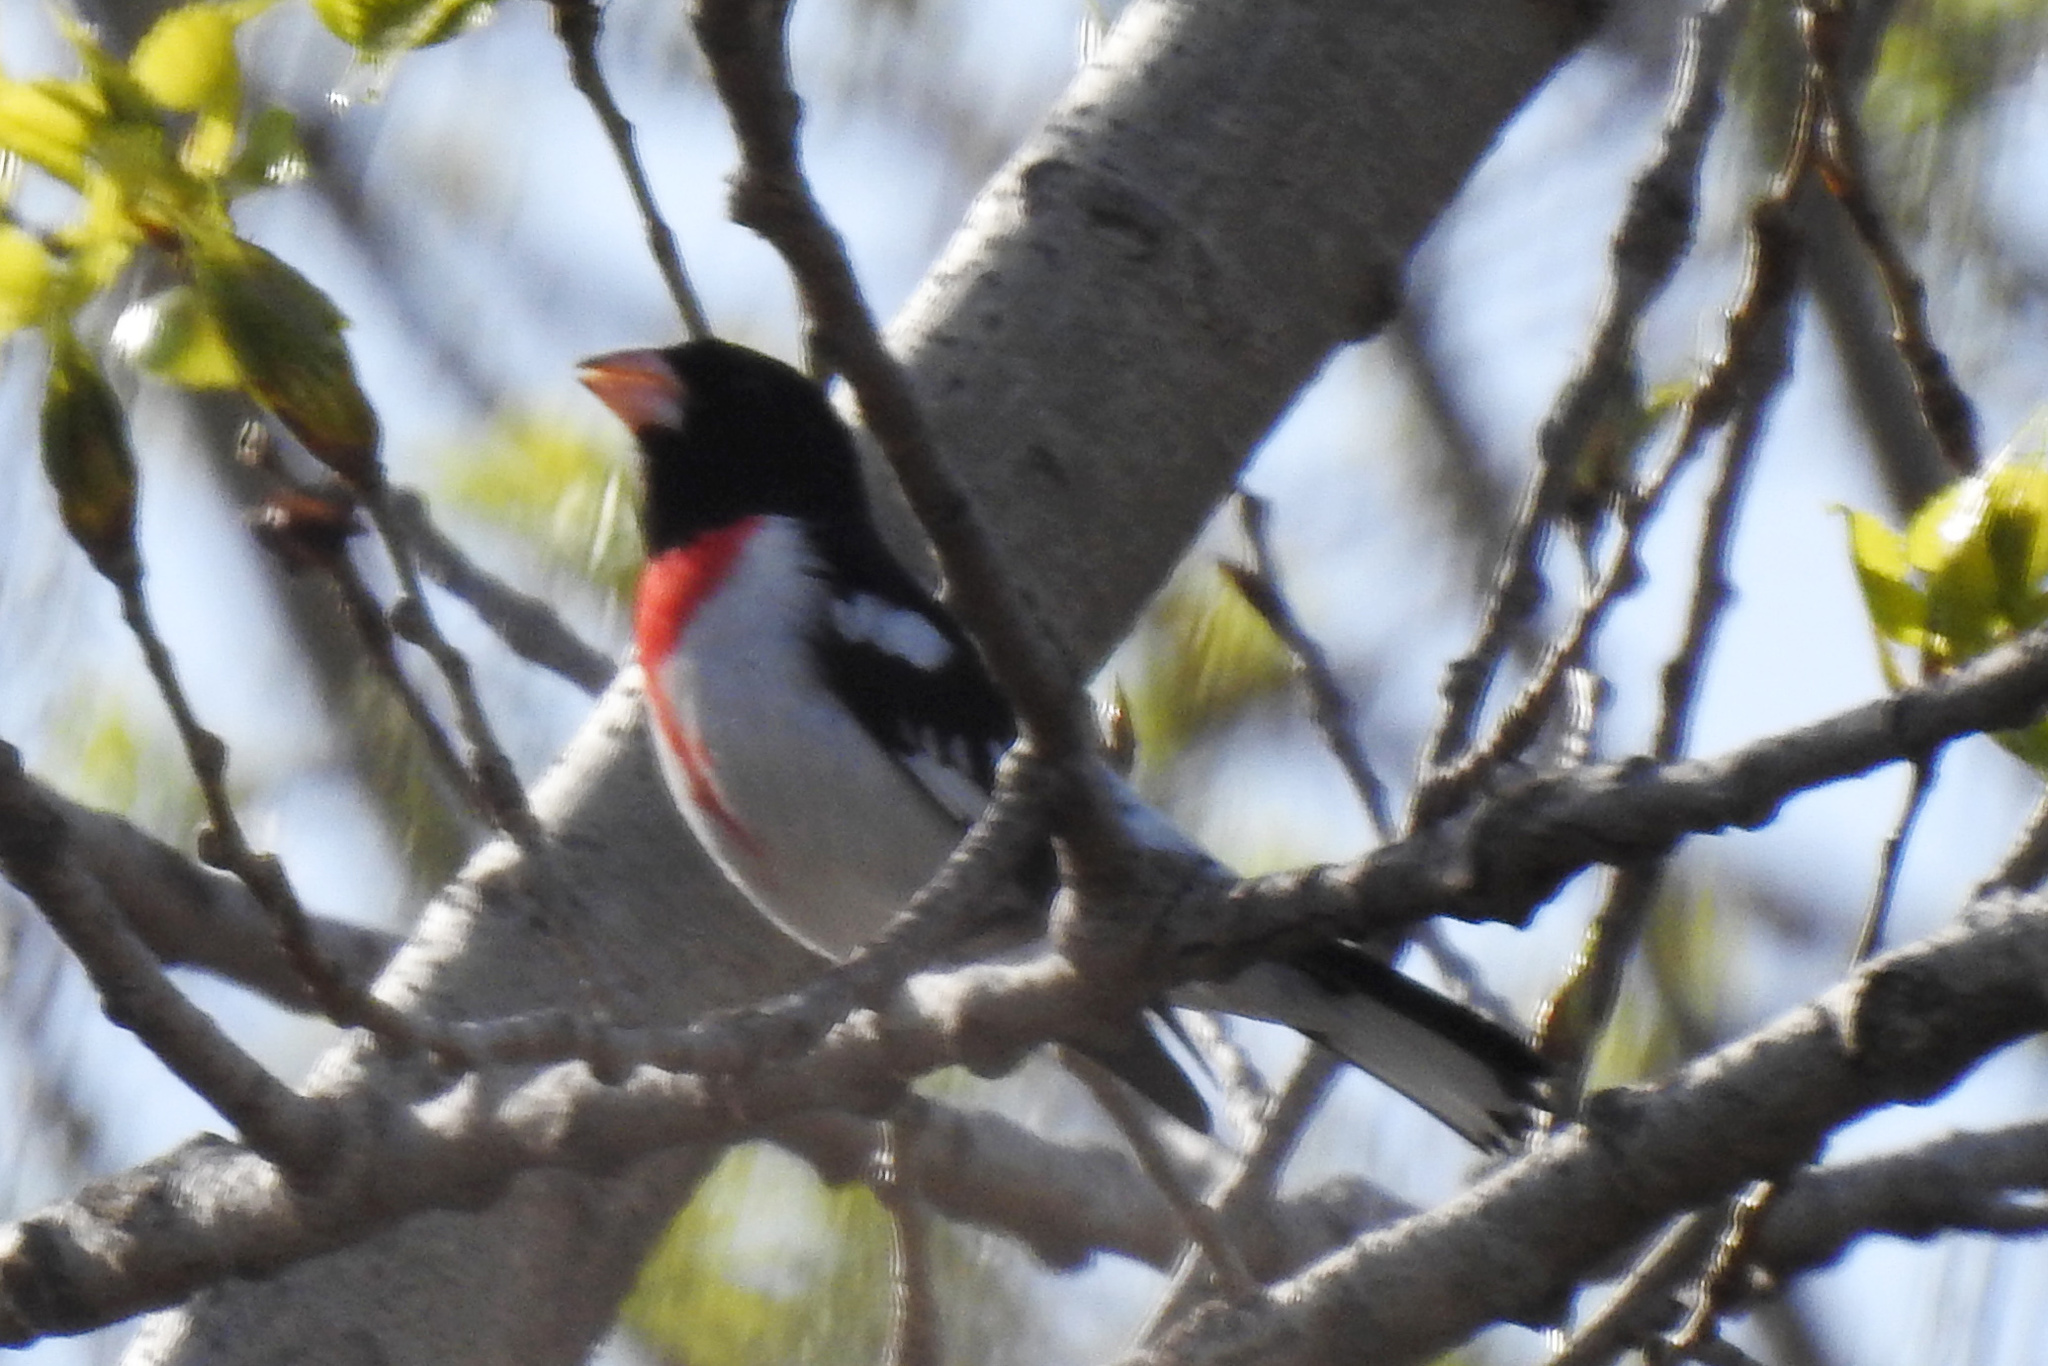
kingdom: Animalia
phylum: Chordata
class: Aves
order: Passeriformes
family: Cardinalidae
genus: Pheucticus
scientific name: Pheucticus ludovicianus
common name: Rose-breasted grosbeak
